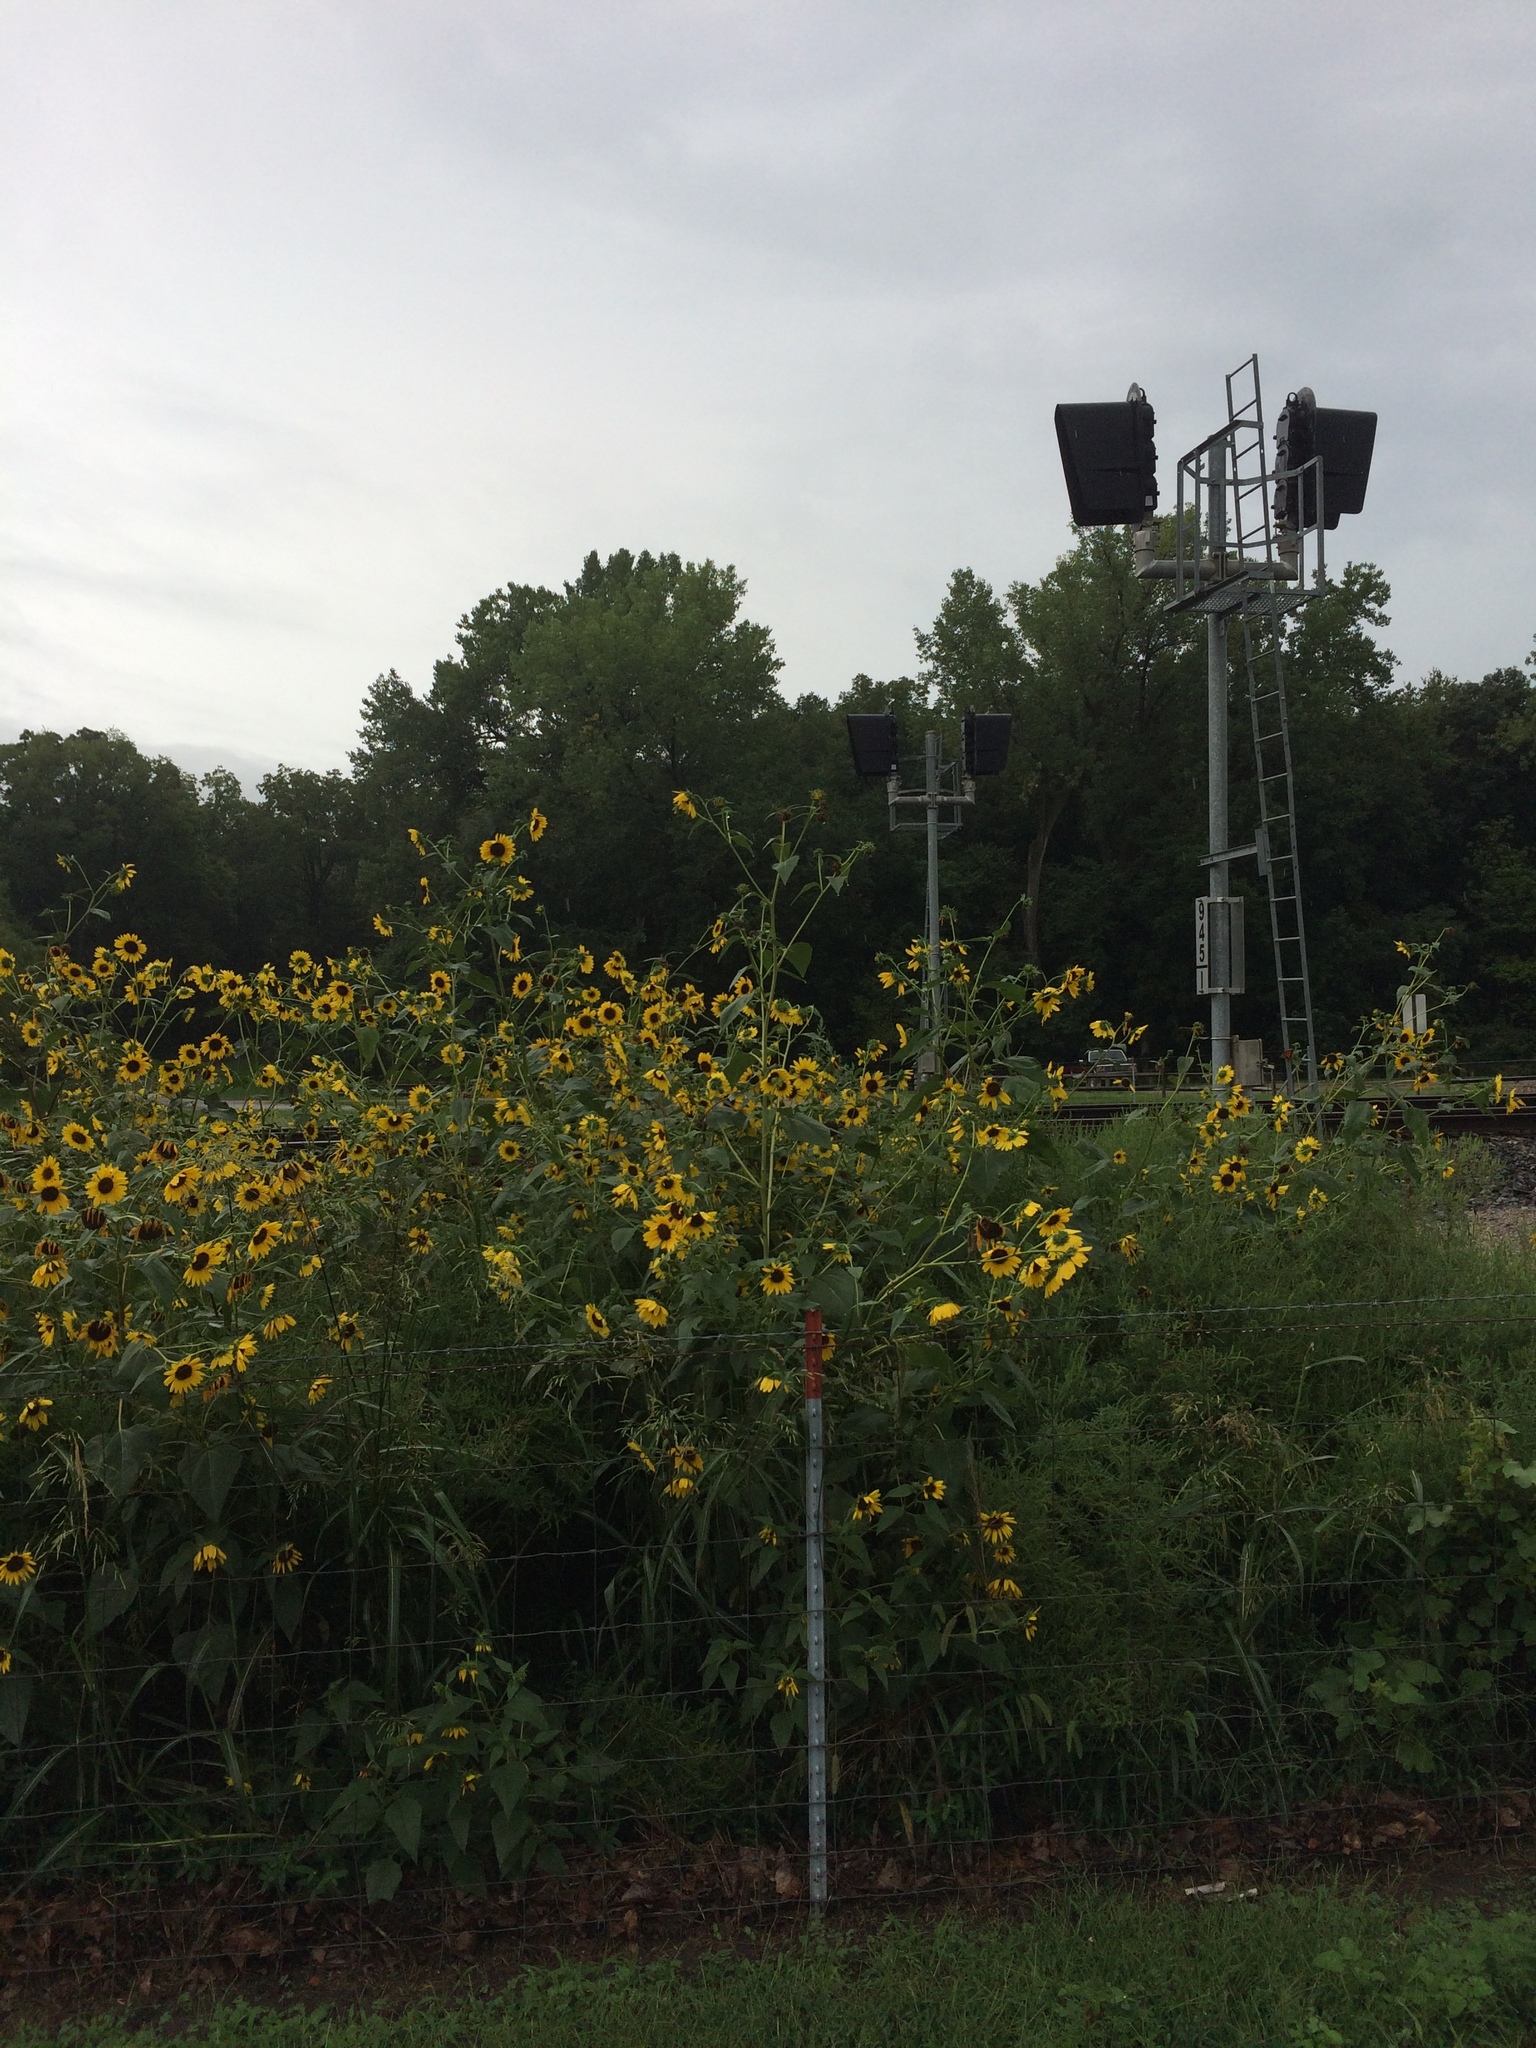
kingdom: Plantae
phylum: Tracheophyta
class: Magnoliopsida
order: Asterales
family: Asteraceae
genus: Helianthus
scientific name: Helianthus annuus
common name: Sunflower
